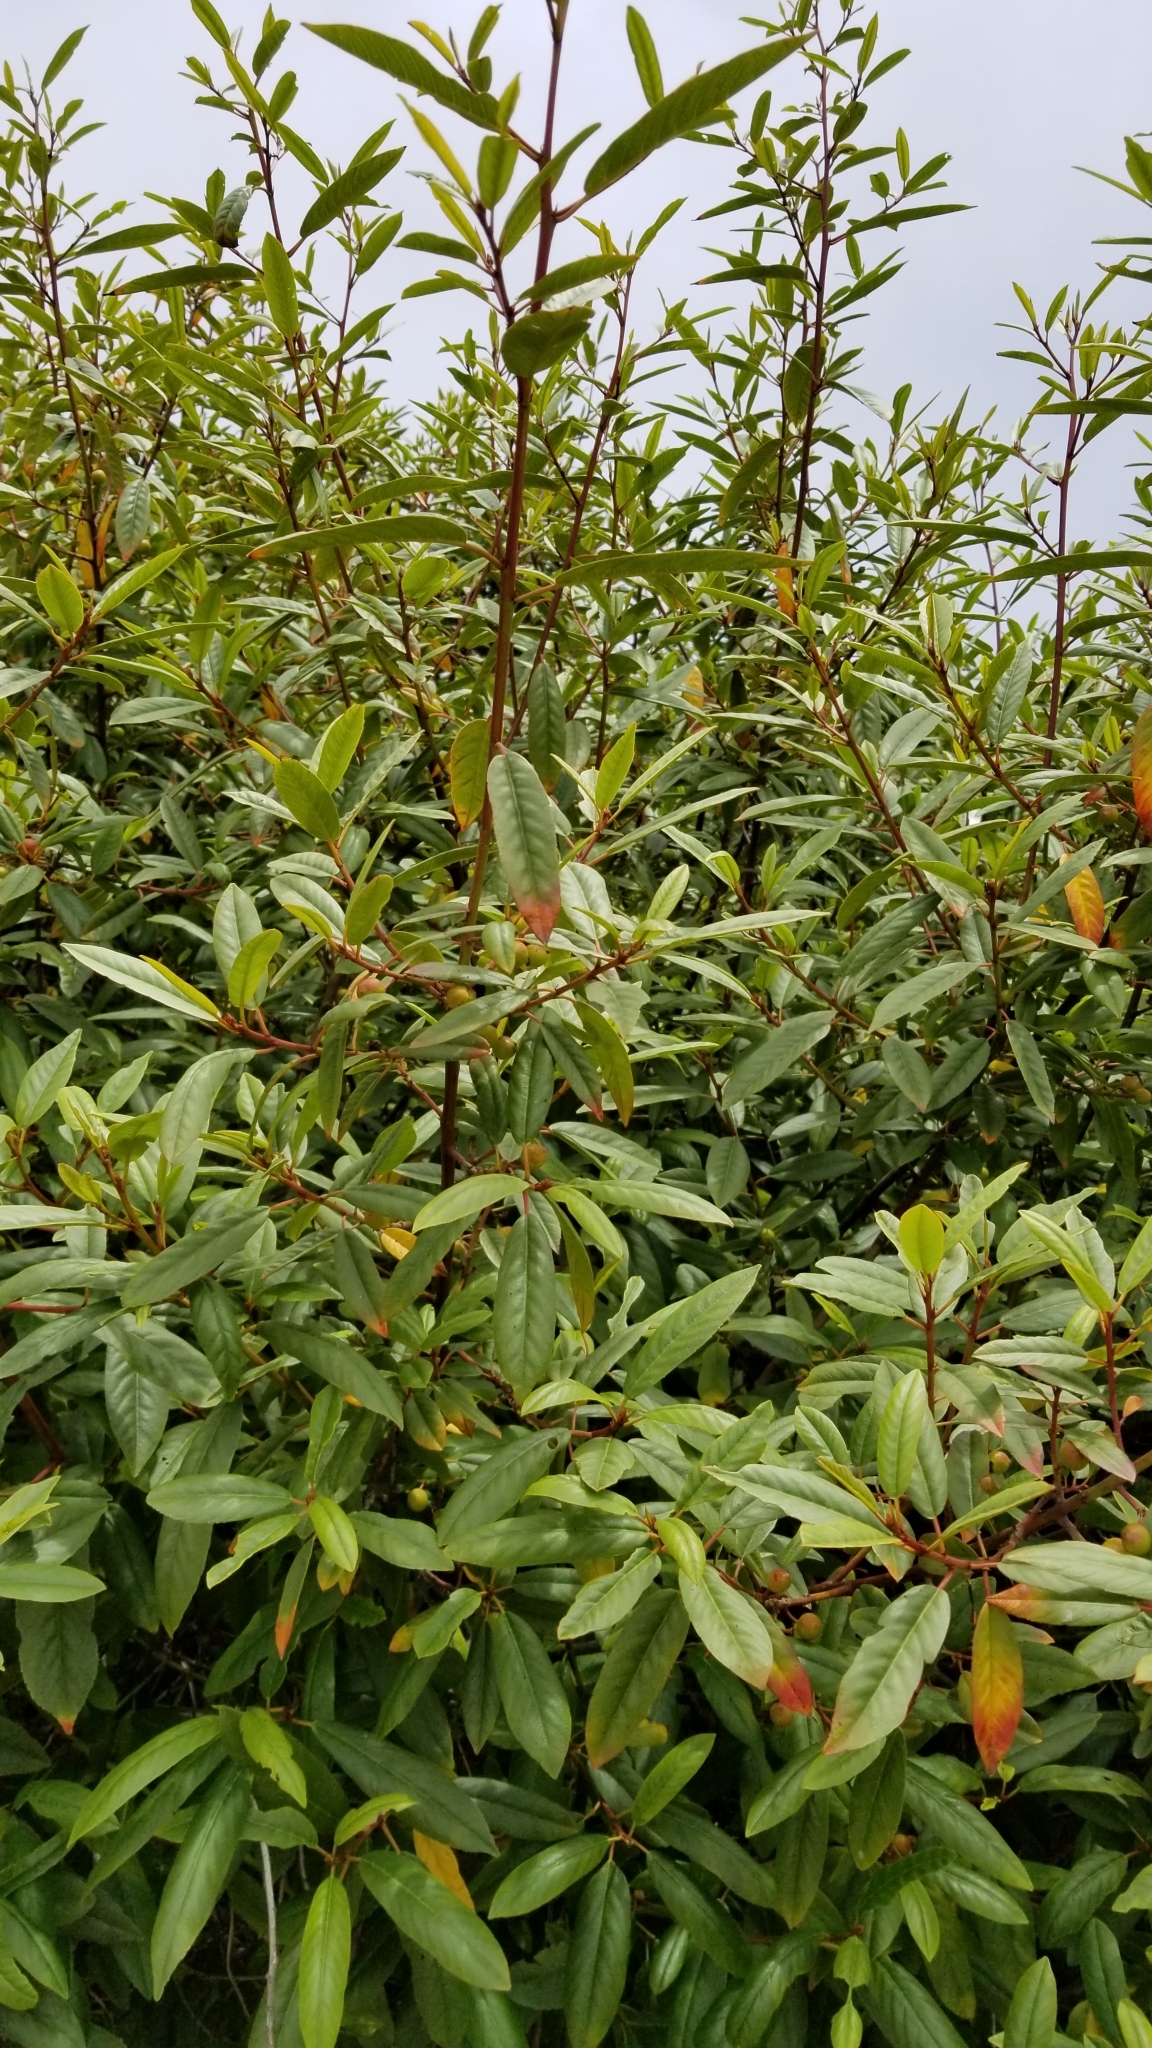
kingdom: Plantae
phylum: Tracheophyta
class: Magnoliopsida
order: Rosales
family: Rhamnaceae
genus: Frangula
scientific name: Frangula californica
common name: California buckthorn
